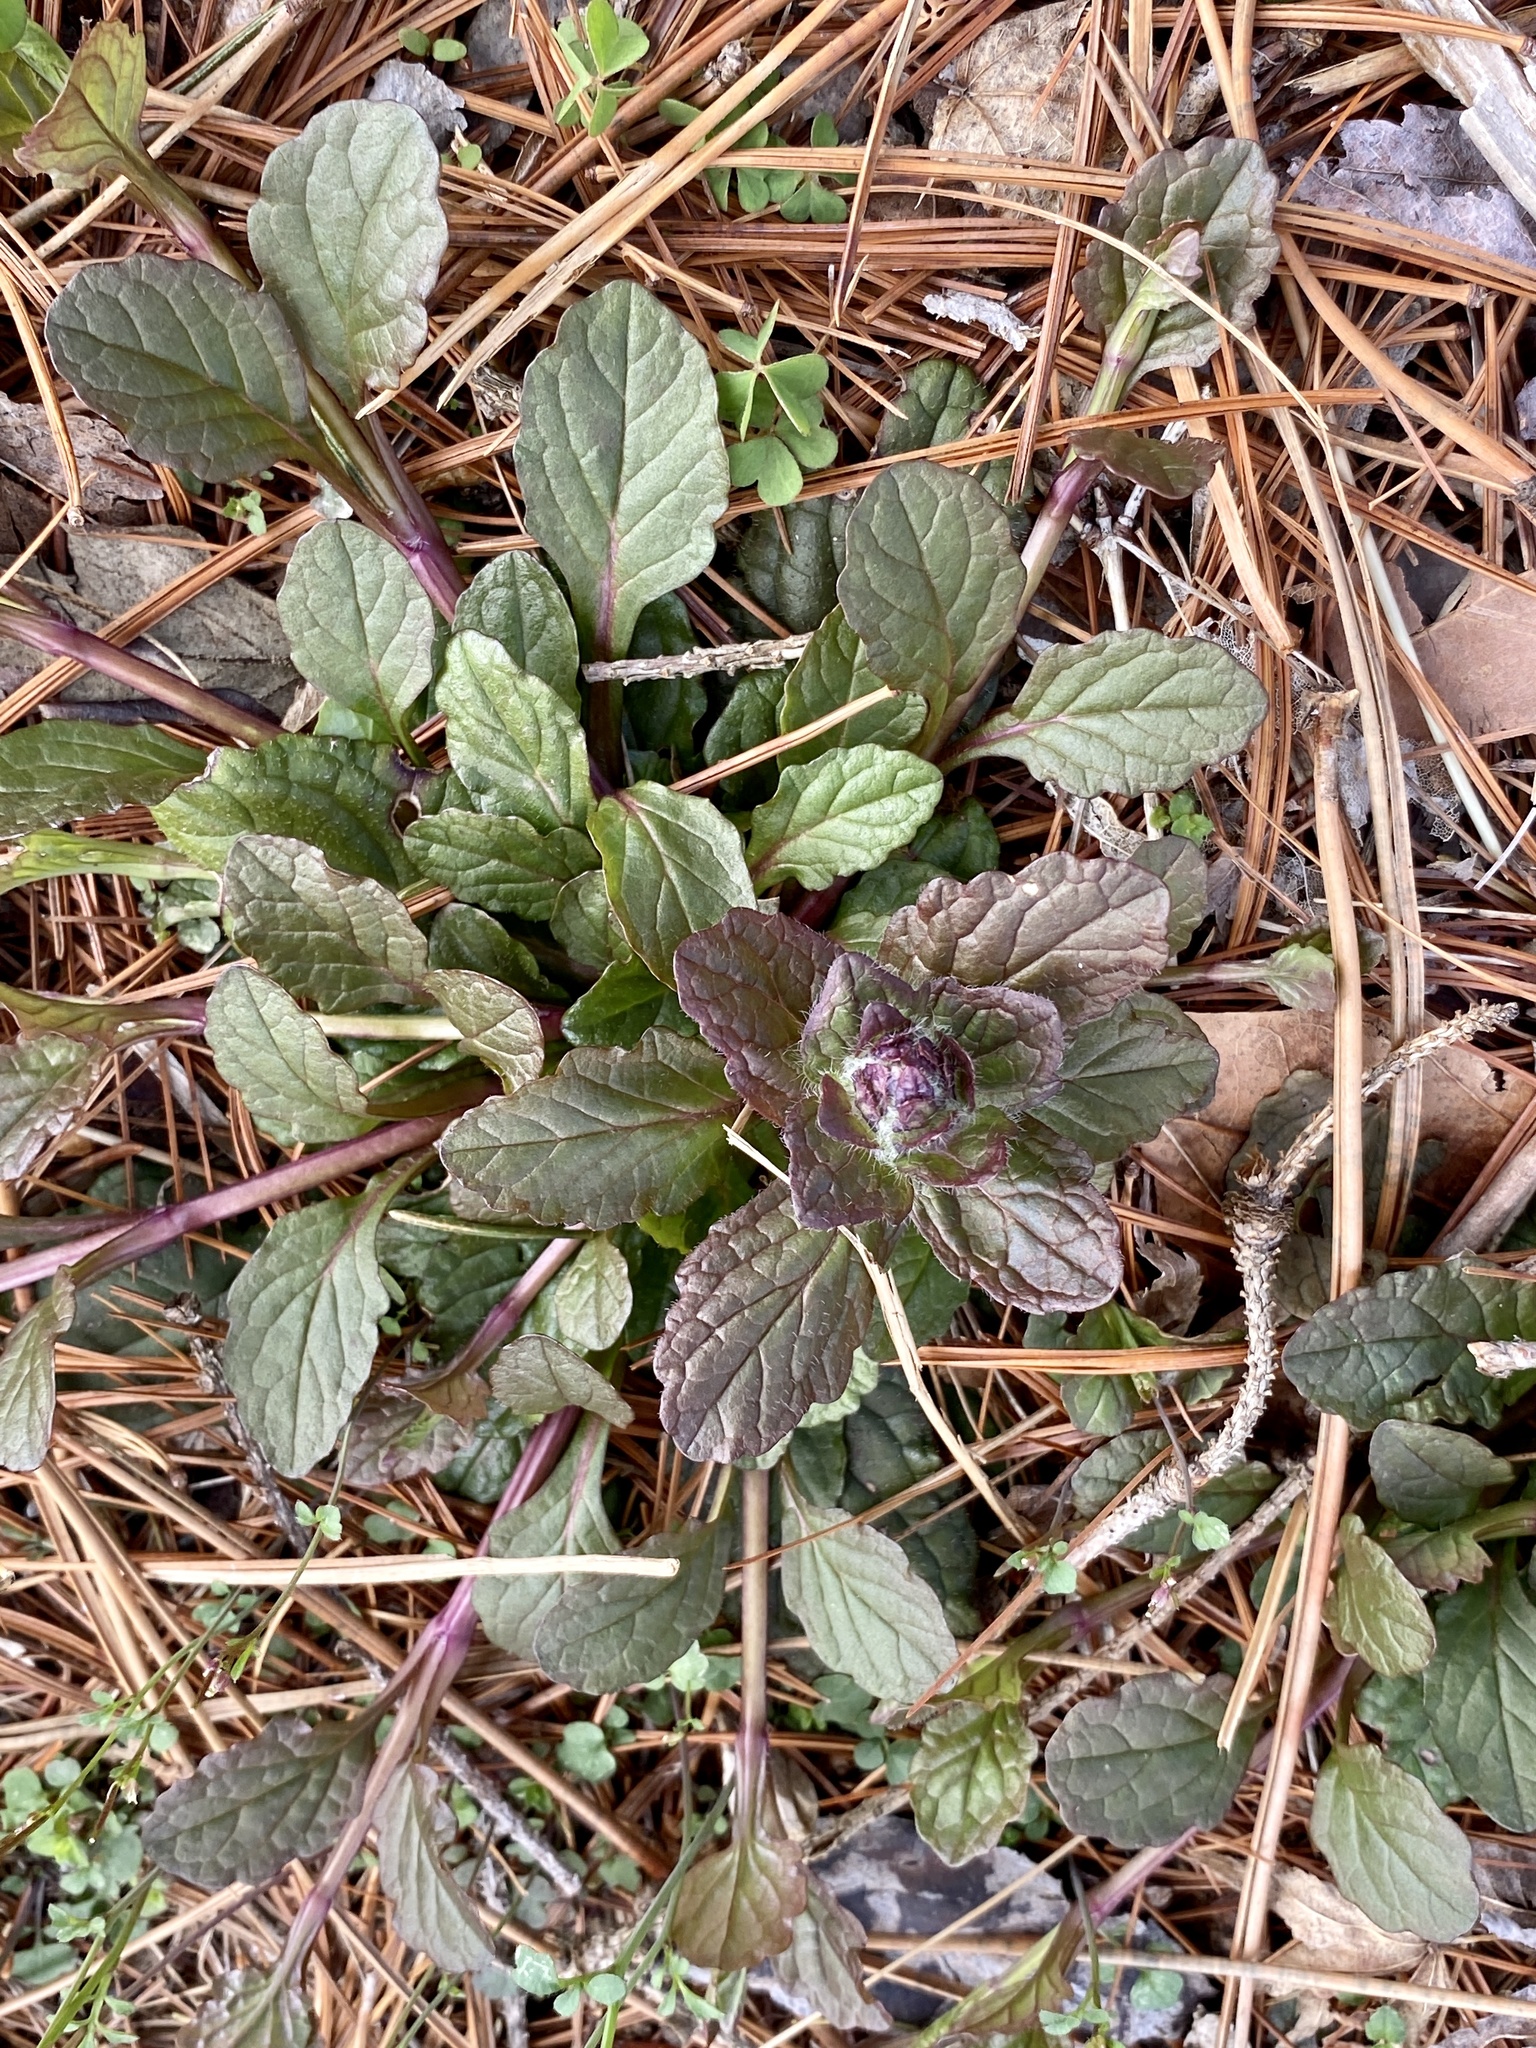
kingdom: Plantae
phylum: Tracheophyta
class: Magnoliopsida
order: Lamiales
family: Lamiaceae
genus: Ajuga
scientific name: Ajuga reptans
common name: Bugle
